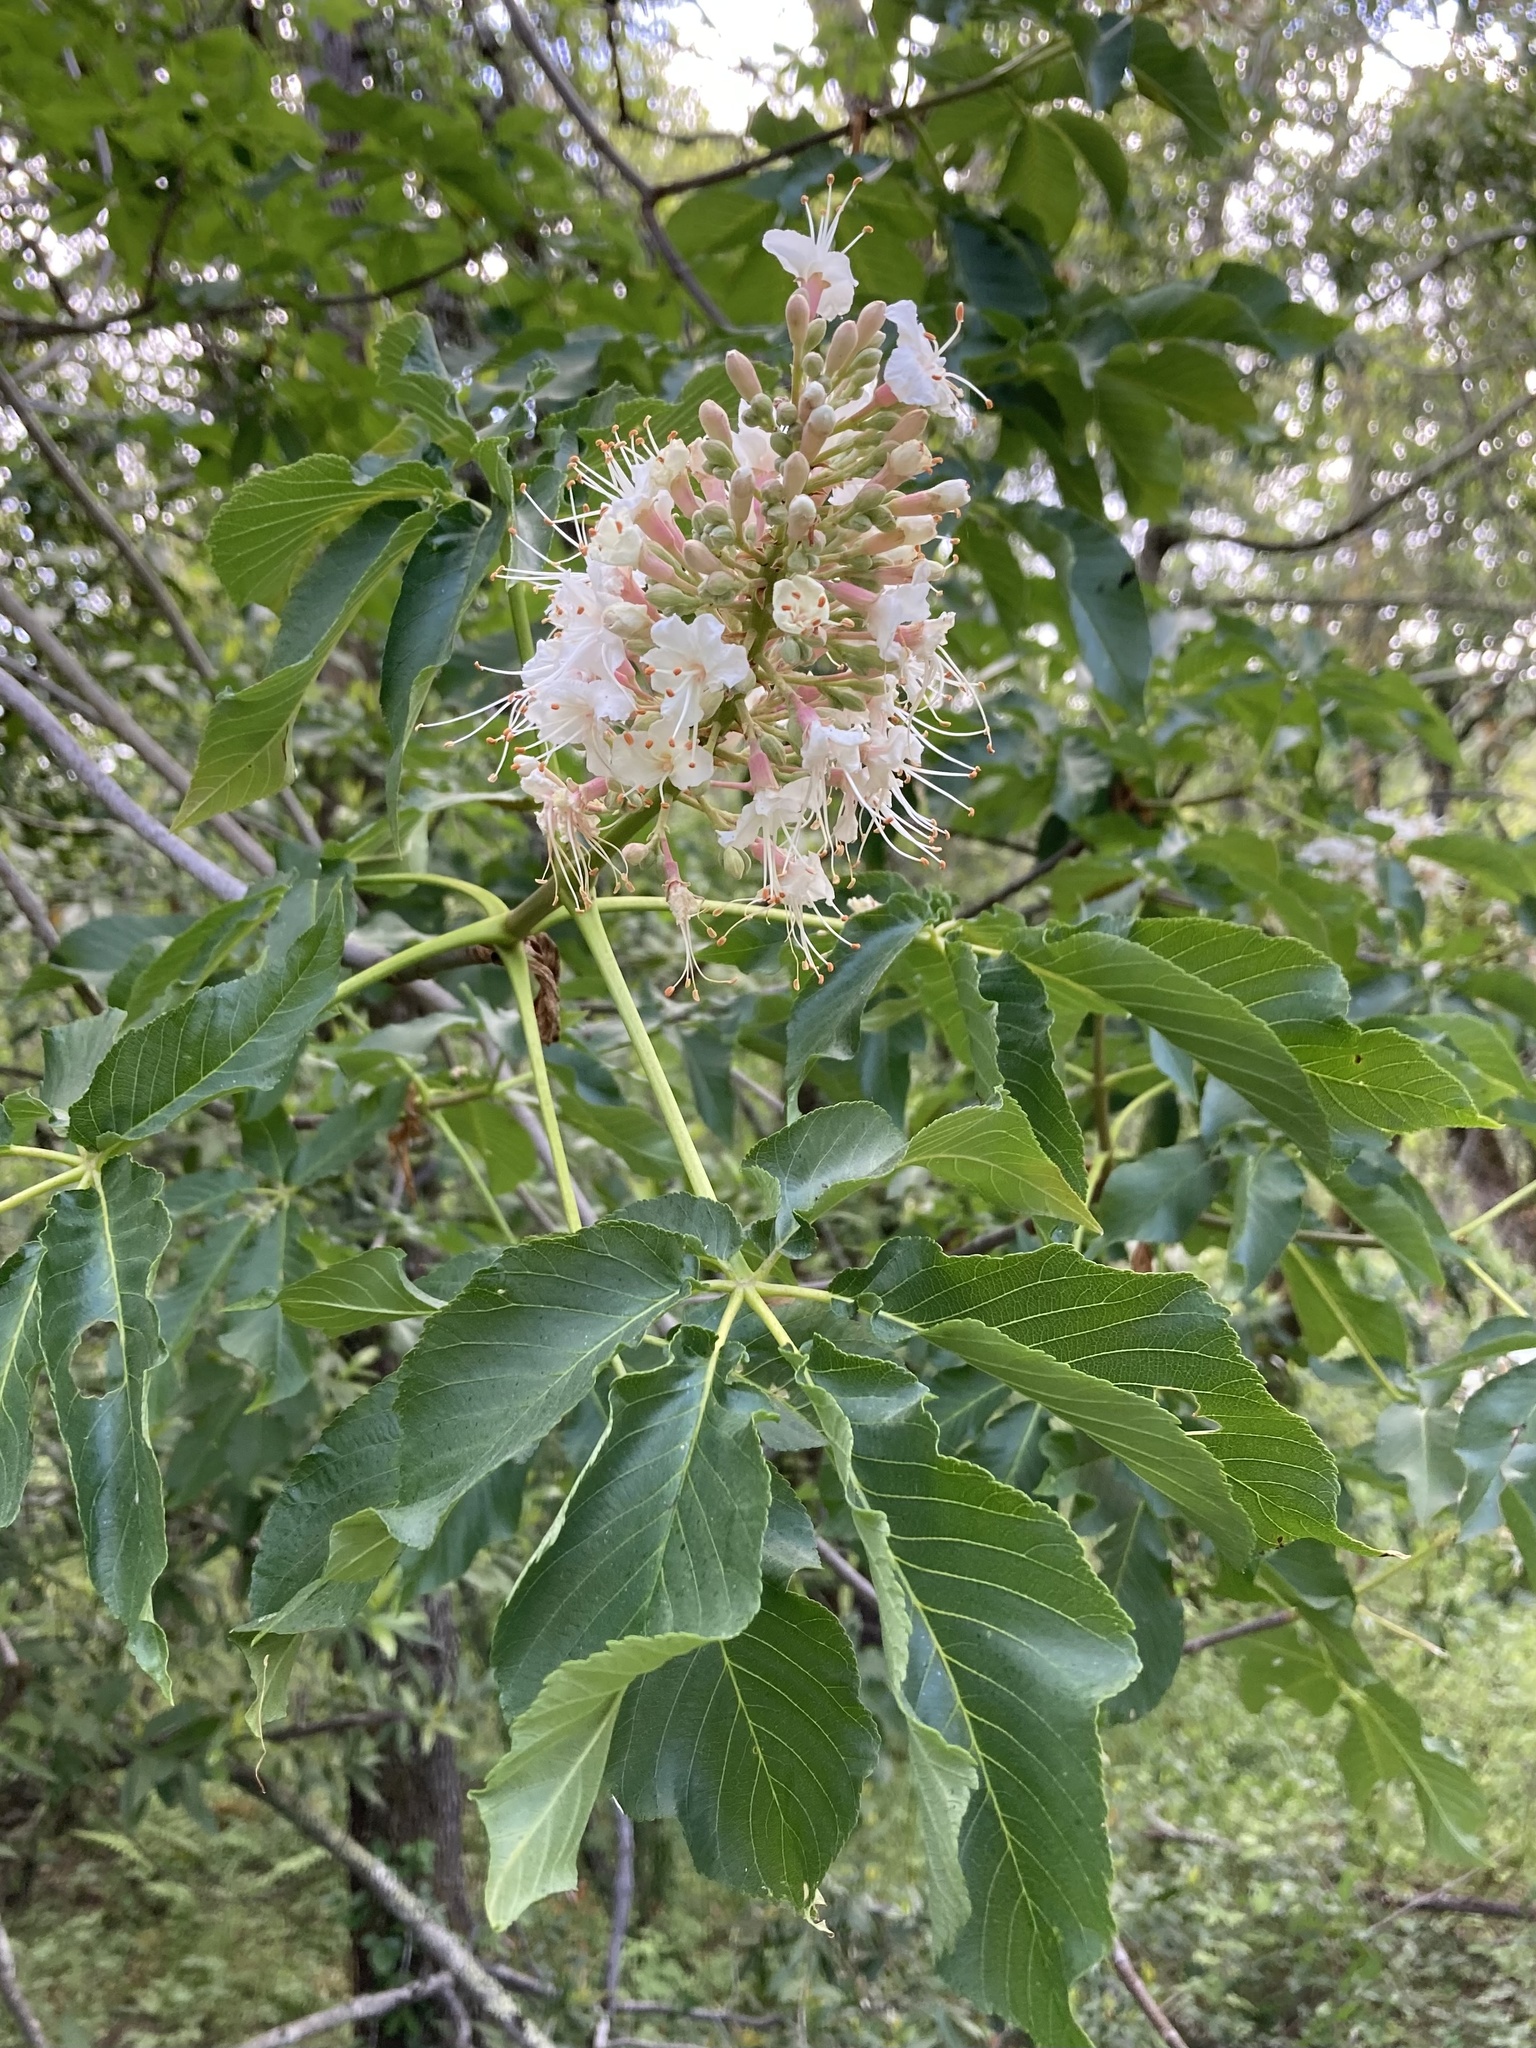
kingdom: Plantae
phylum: Tracheophyta
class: Magnoliopsida
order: Sapindales
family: Sapindaceae
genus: Aesculus
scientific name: Aesculus californica
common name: California buckeye
